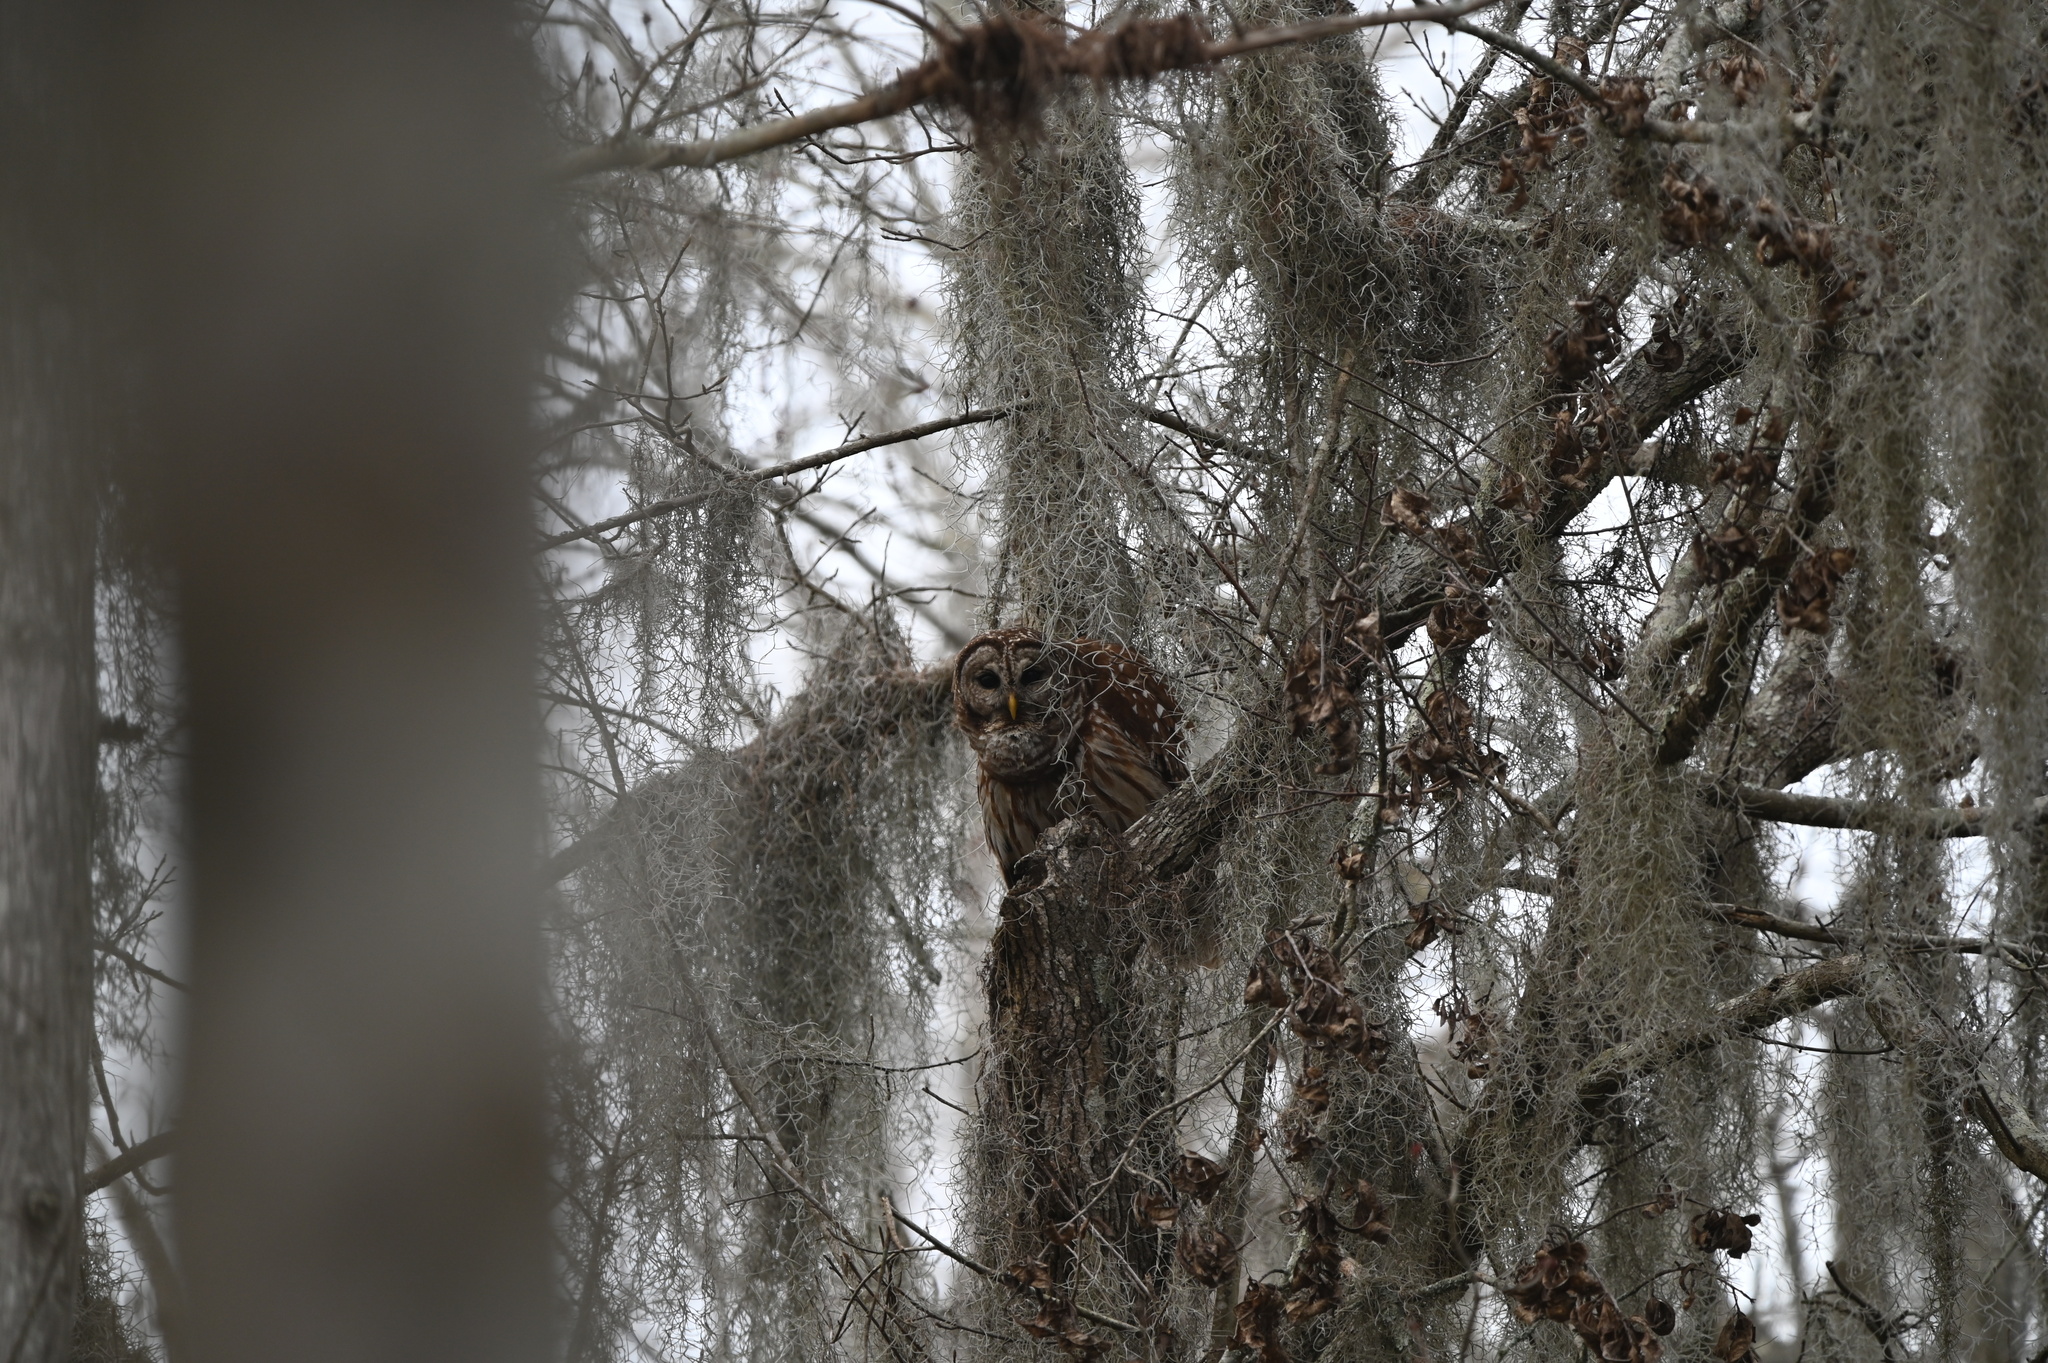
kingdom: Animalia
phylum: Chordata
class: Aves
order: Strigiformes
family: Strigidae
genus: Strix
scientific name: Strix varia
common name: Barred owl
